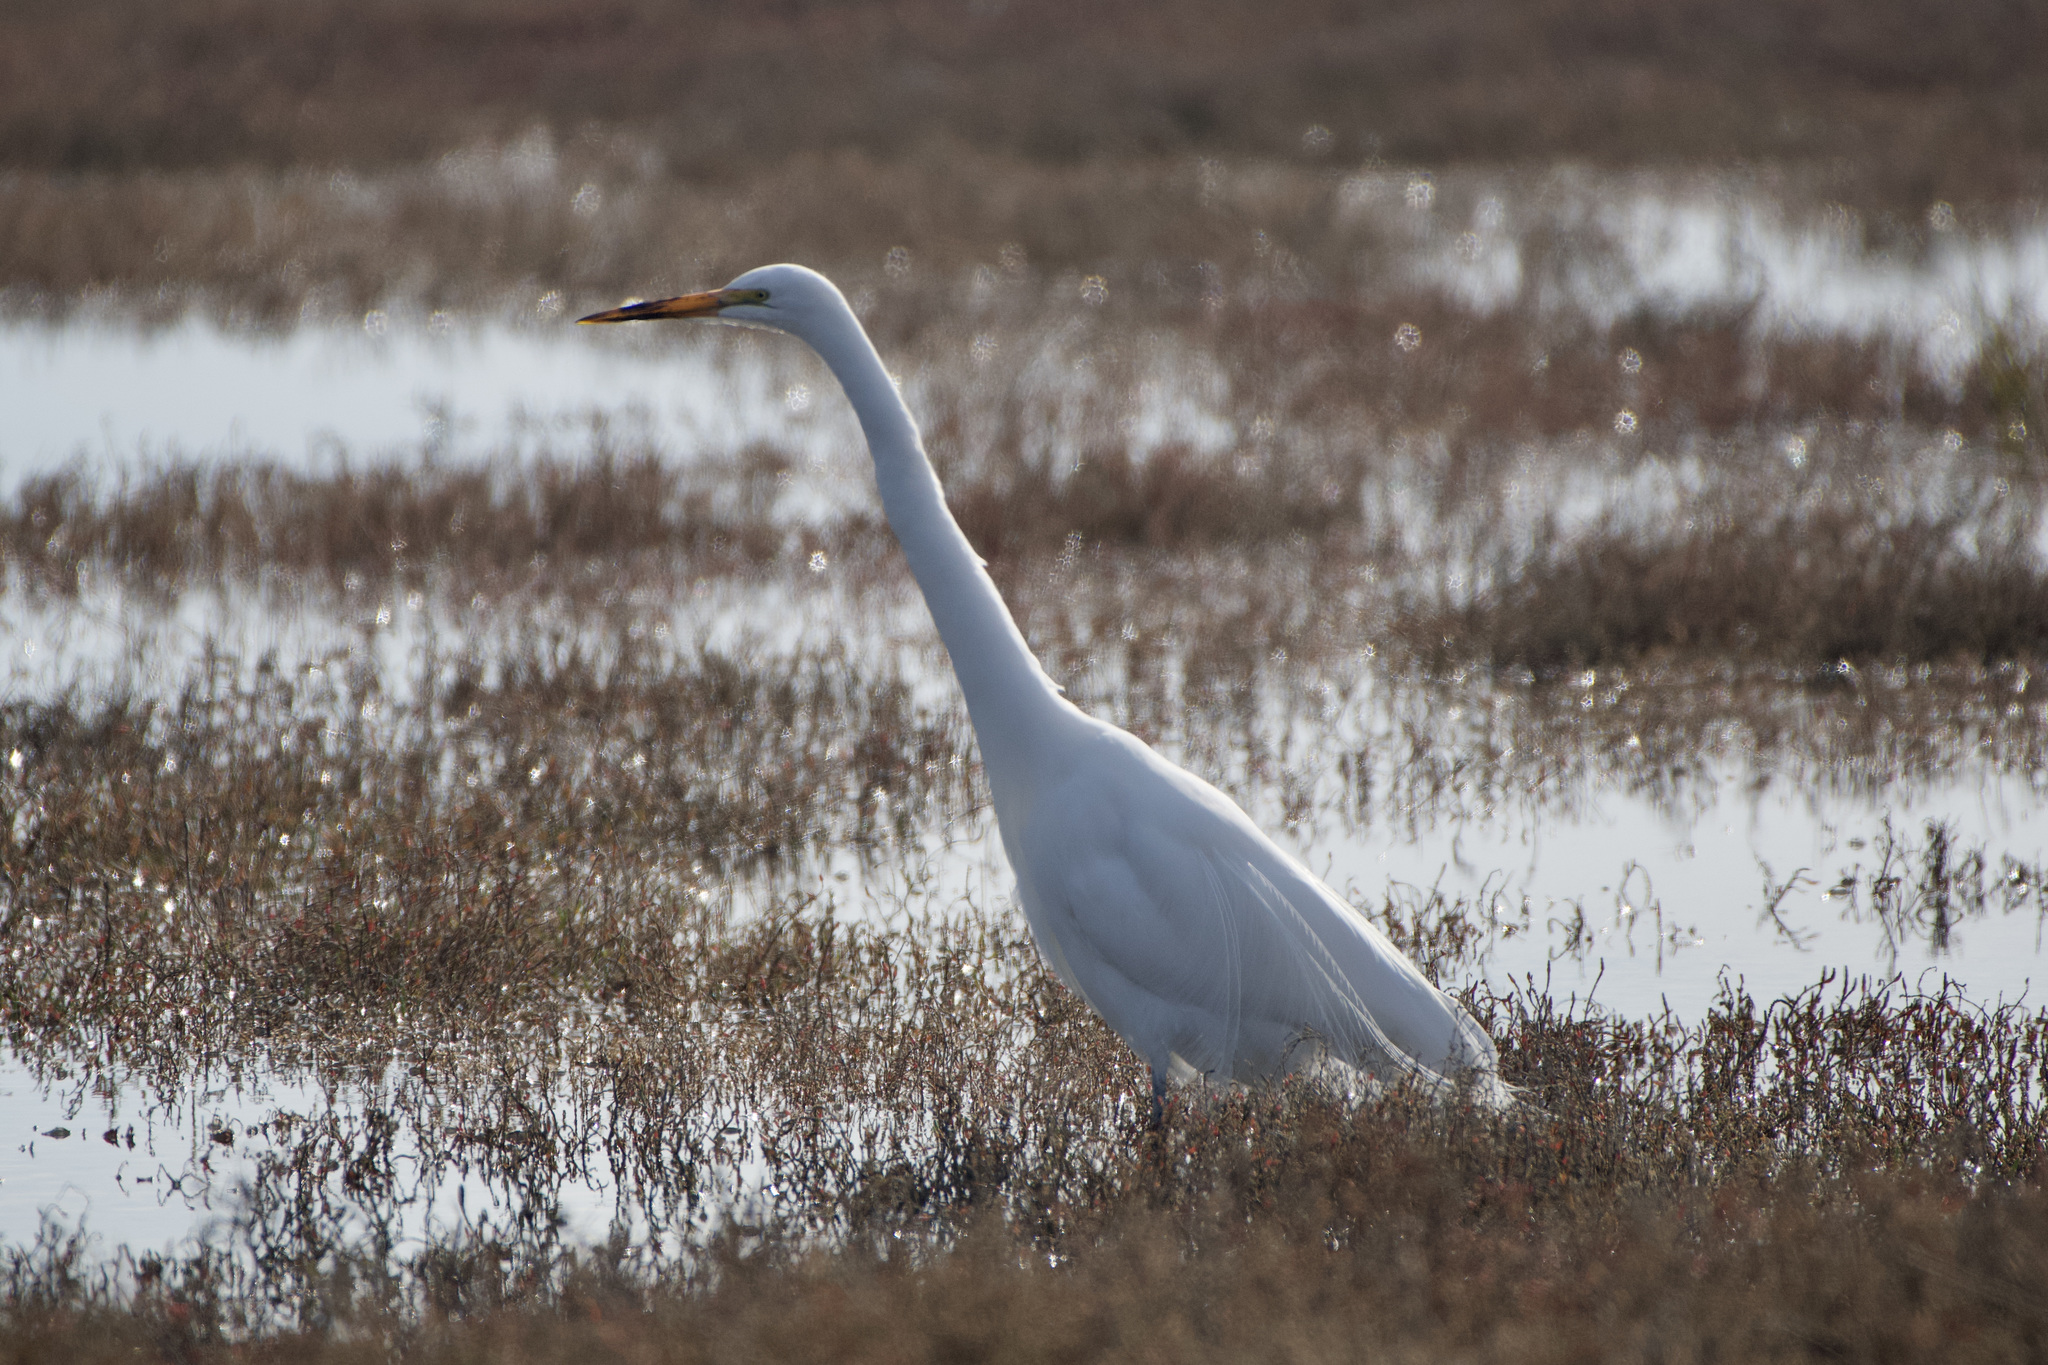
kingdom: Animalia
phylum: Chordata
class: Aves
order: Pelecaniformes
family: Ardeidae
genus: Ardea
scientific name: Ardea alba
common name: Great egret
